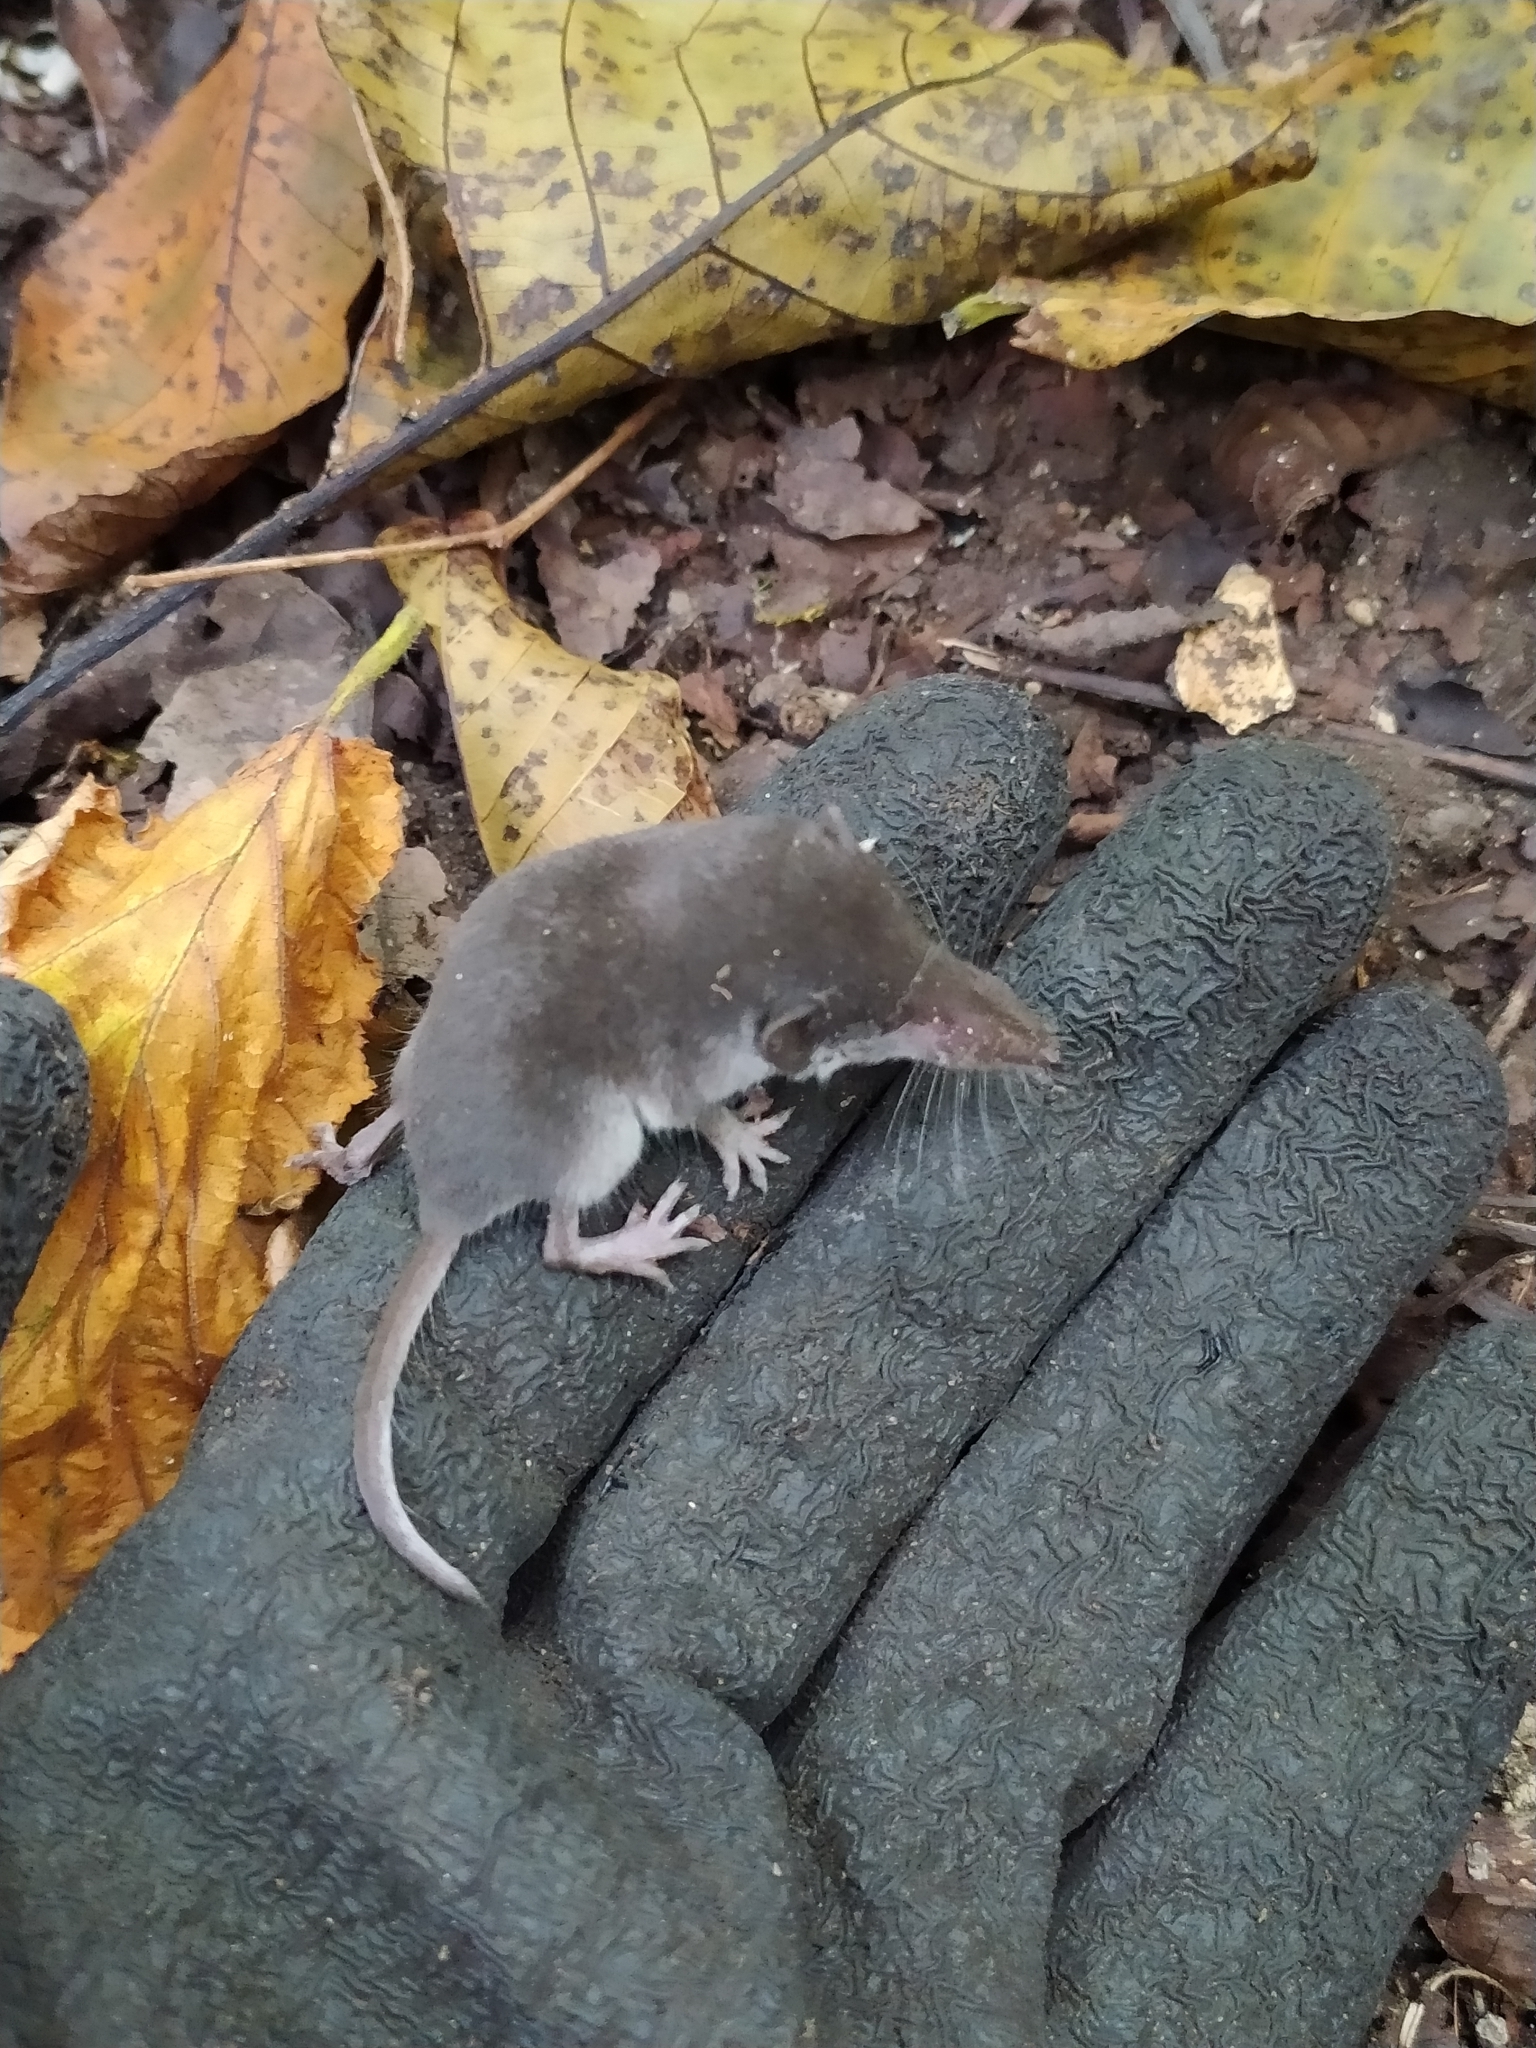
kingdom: Animalia
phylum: Chordata
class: Mammalia
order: Soricomorpha
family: Soricidae
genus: Crocidura
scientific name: Crocidura leucodon
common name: Bicolored shrew
